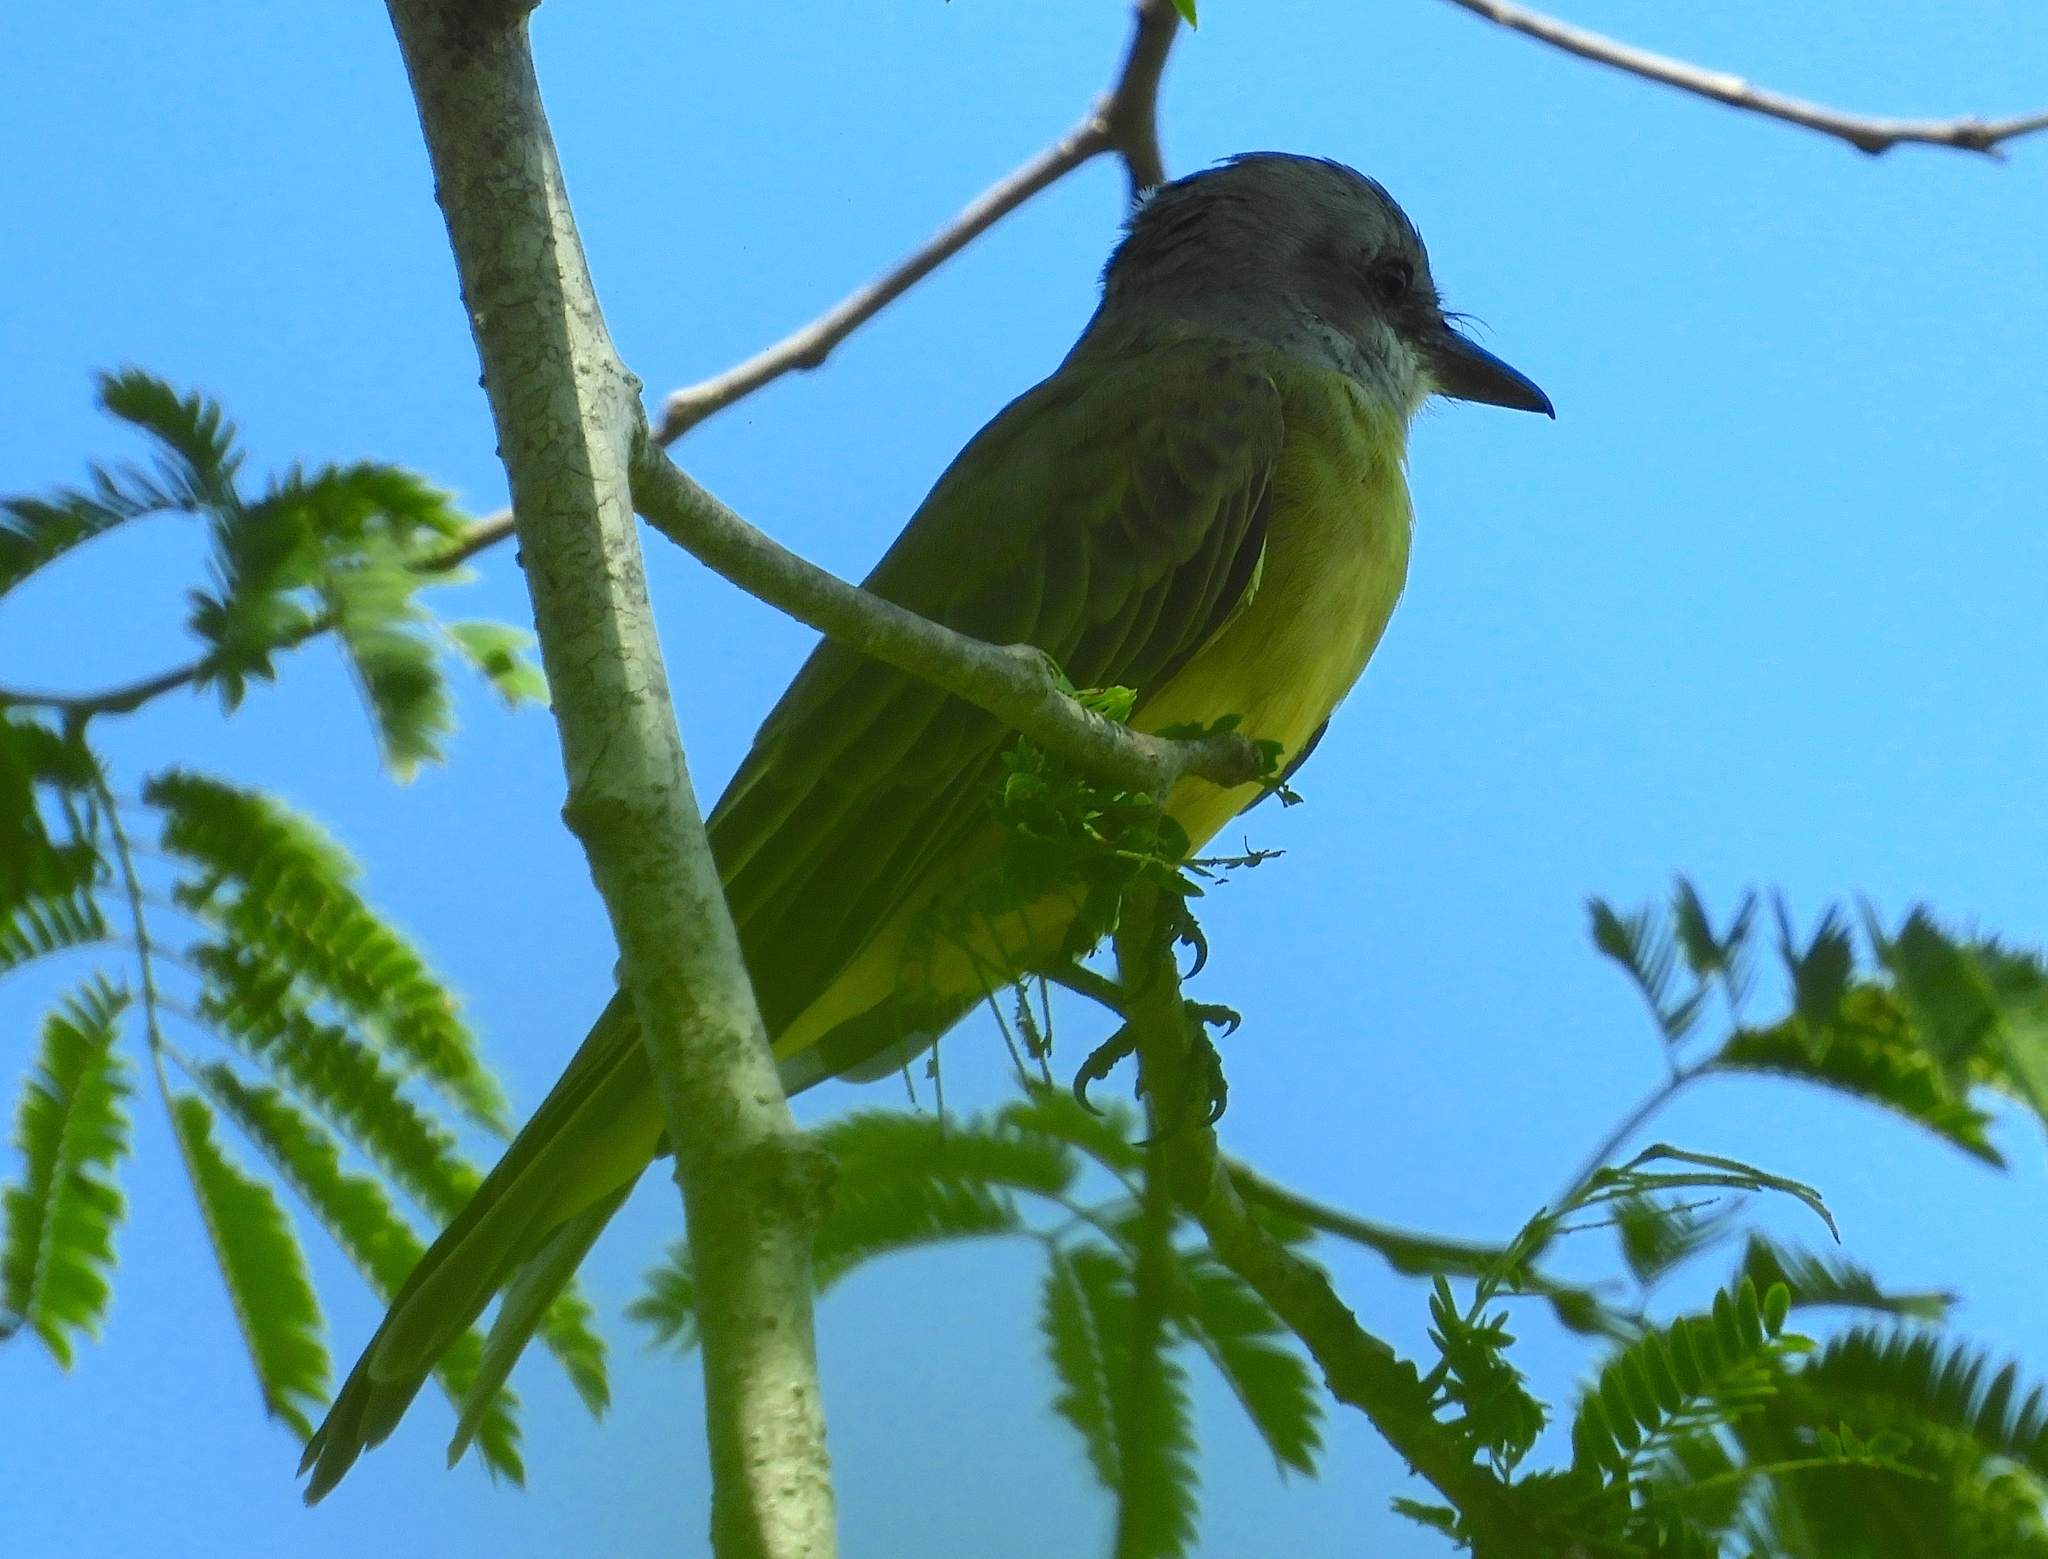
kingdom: Animalia
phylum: Chordata
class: Aves
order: Passeriformes
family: Tyrannidae
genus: Tyrannus
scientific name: Tyrannus melancholicus
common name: Tropical kingbird
